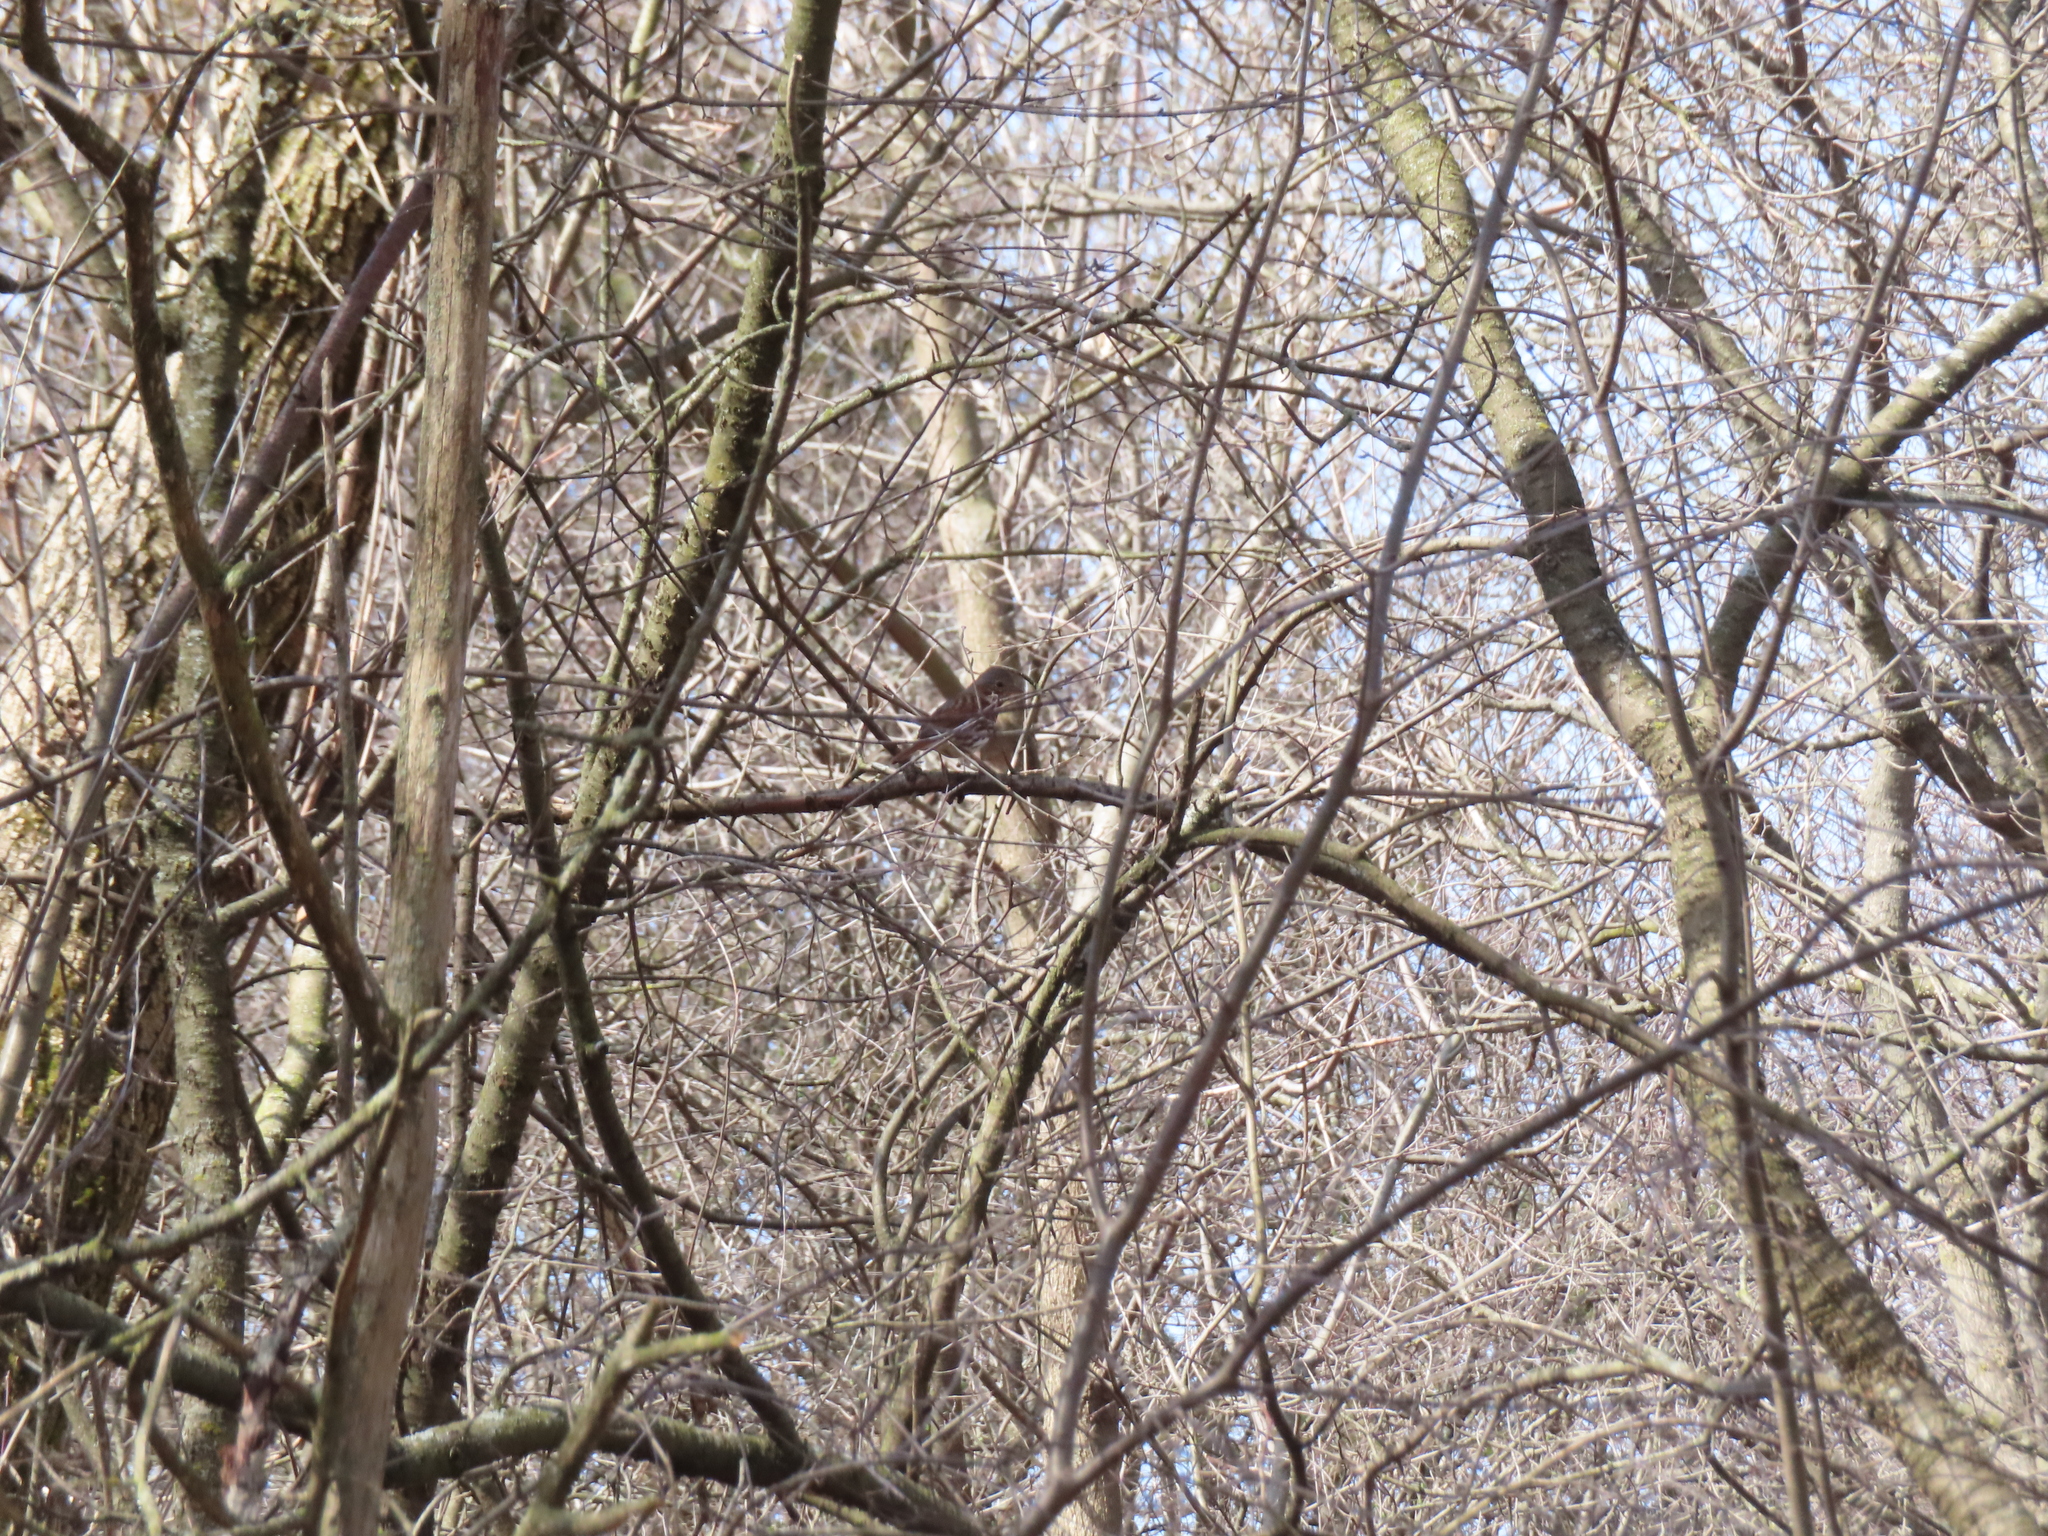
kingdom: Animalia
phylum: Chordata
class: Aves
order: Passeriformes
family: Passerellidae
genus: Passerella
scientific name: Passerella iliaca
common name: Fox sparrow
